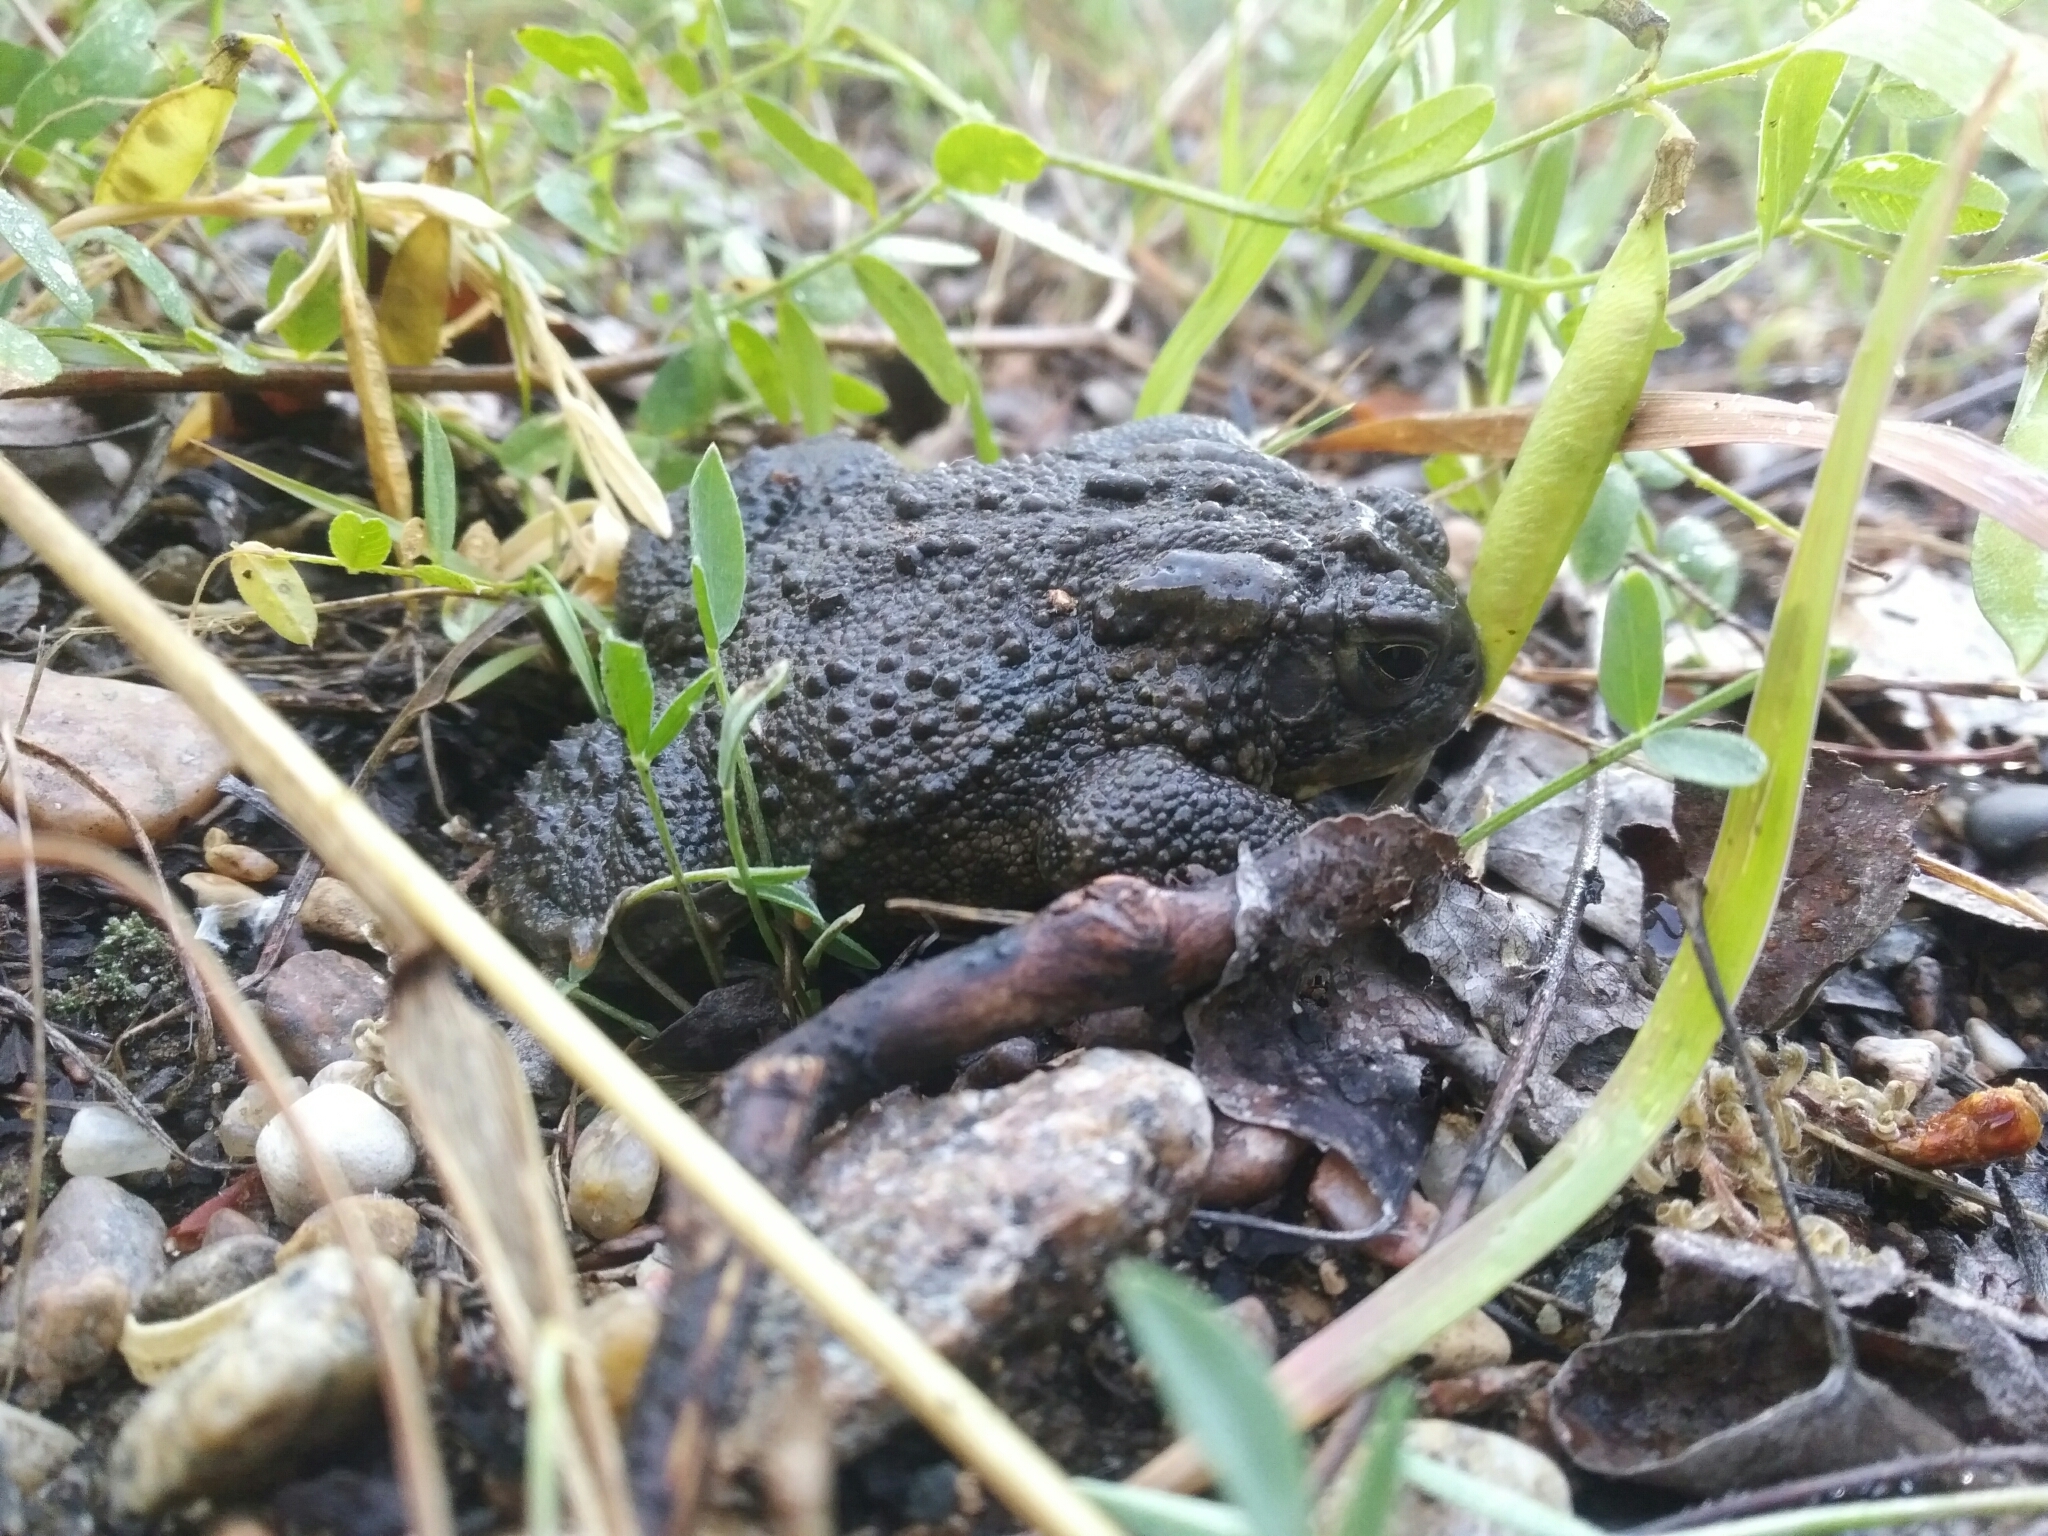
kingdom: Animalia
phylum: Chordata
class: Amphibia
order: Anura
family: Bufonidae
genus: Anaxyrus
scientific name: Anaxyrus hemiophrys
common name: Canadian toad
